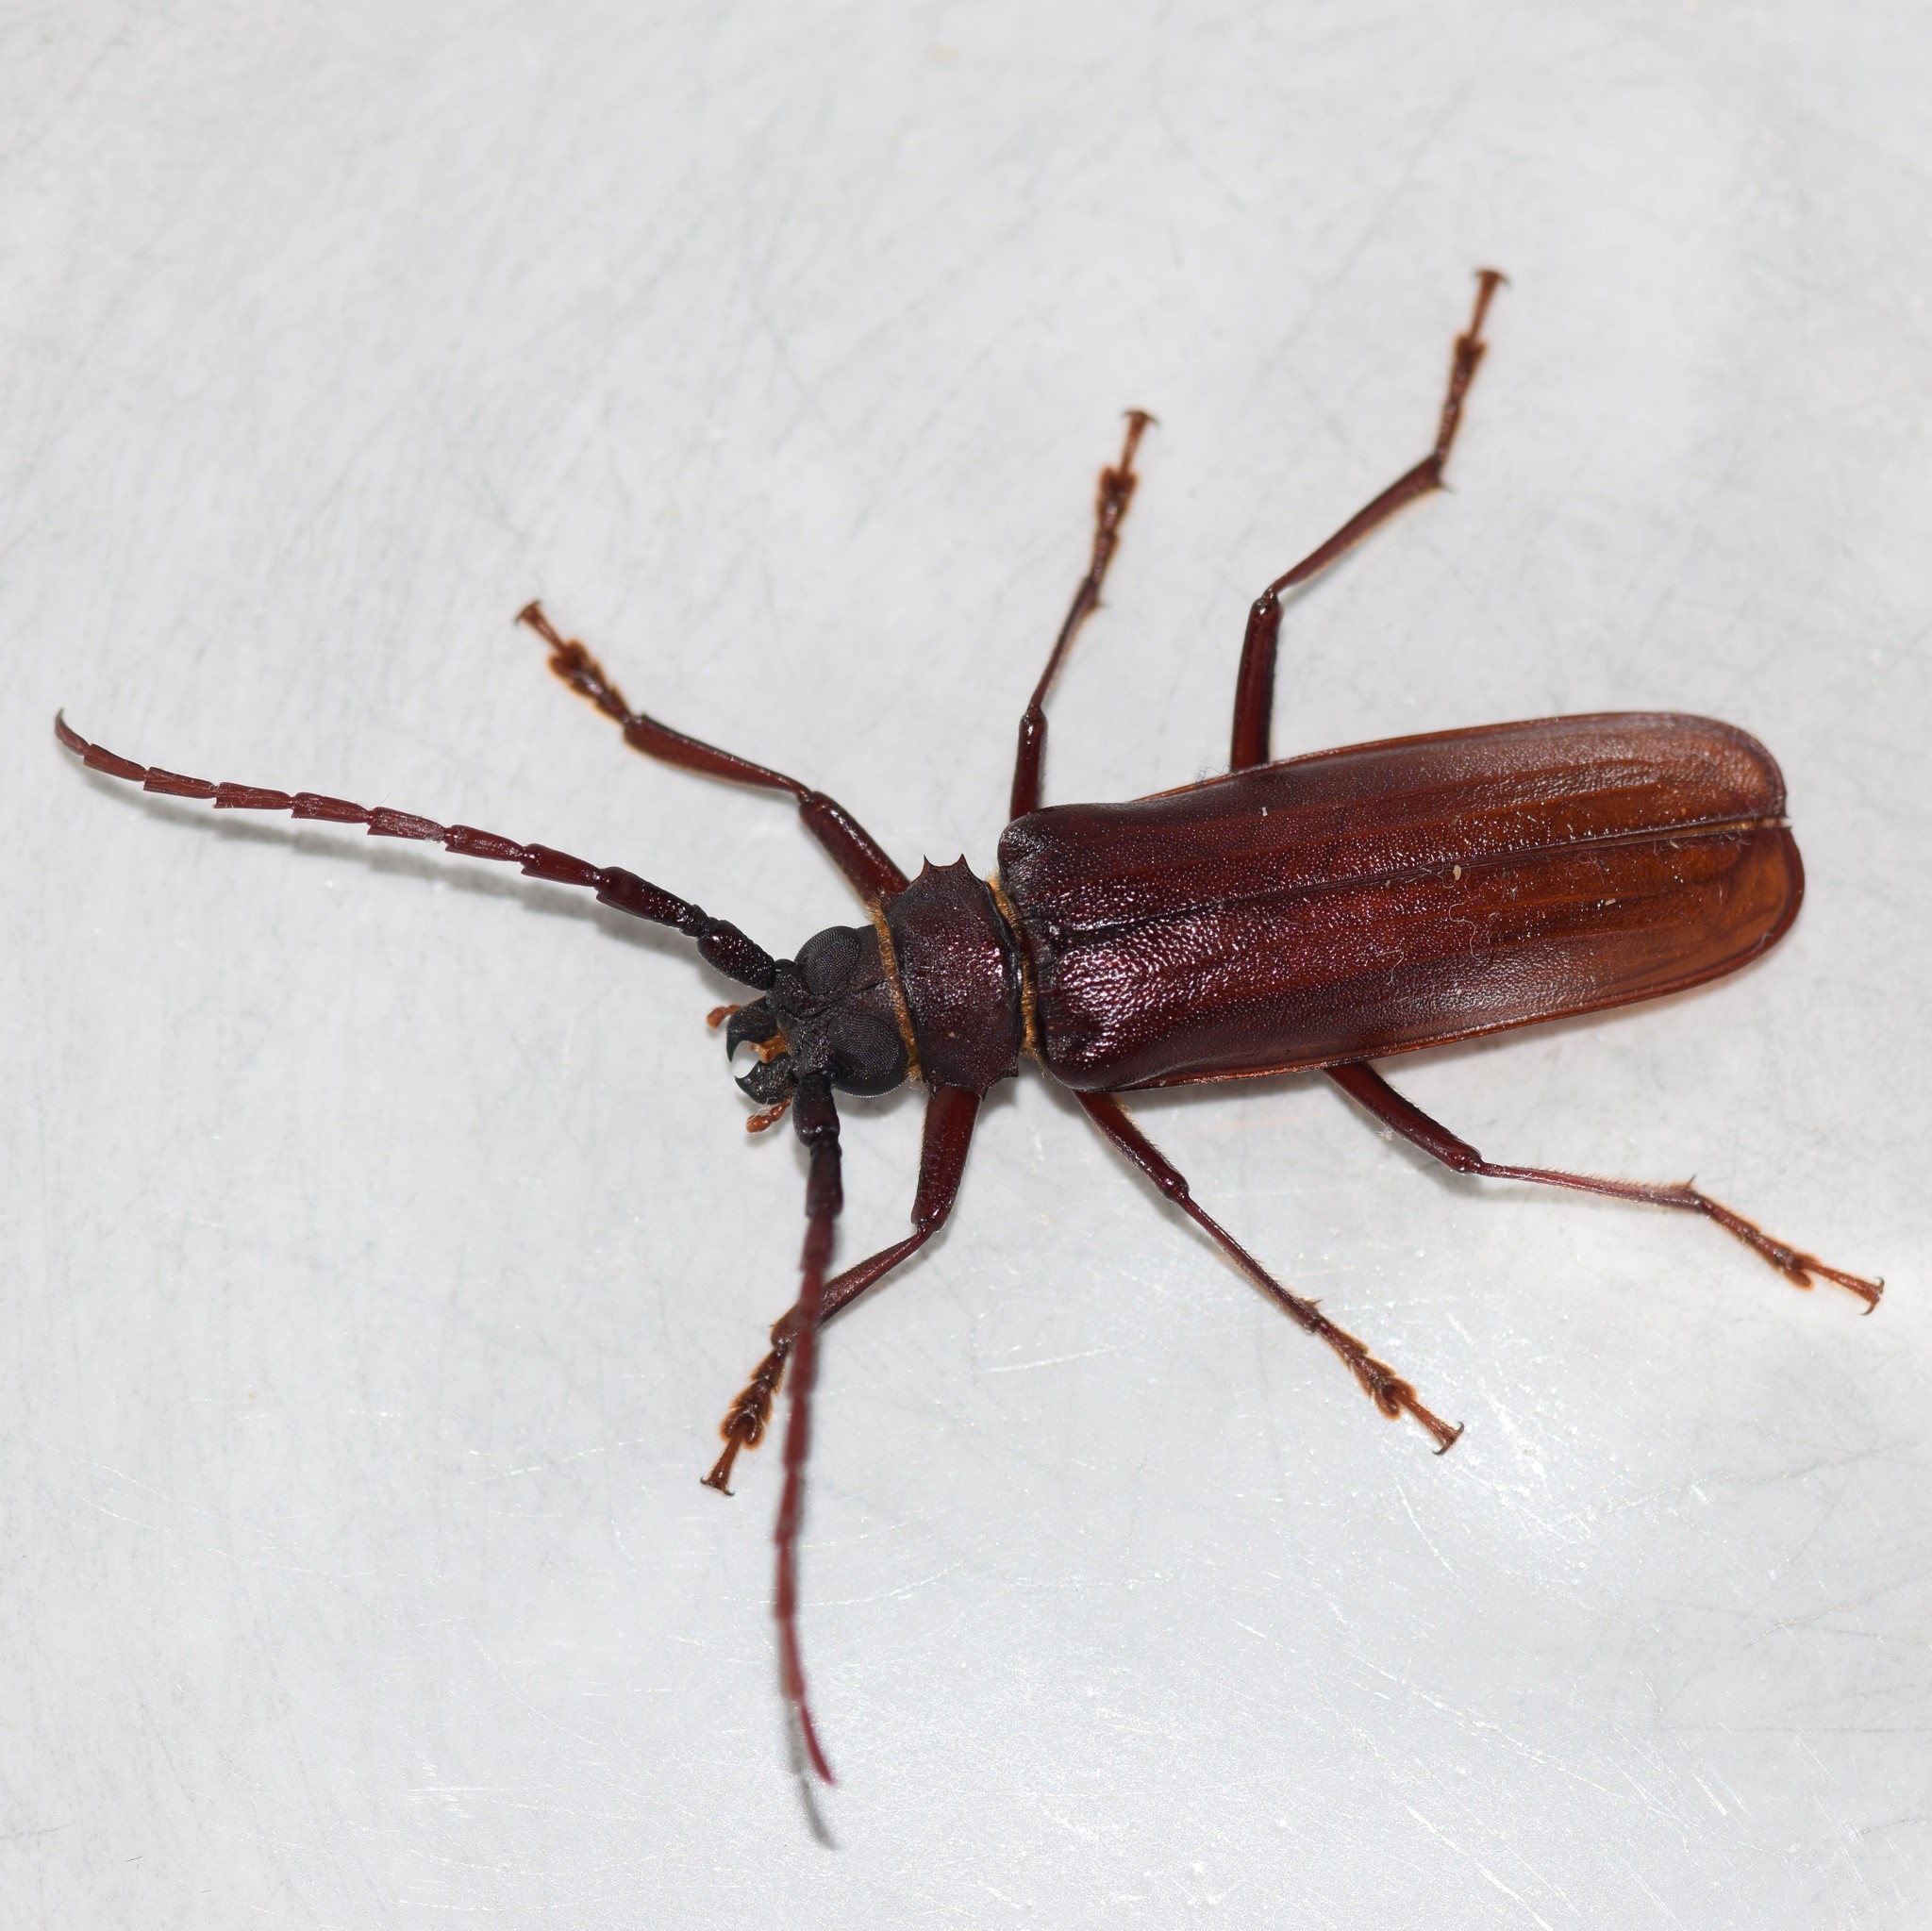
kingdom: Animalia
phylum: Arthropoda
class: Insecta
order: Coleoptera
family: Cerambycidae
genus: Orthosoma
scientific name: Orthosoma brunneum
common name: Brown prionid beetle
